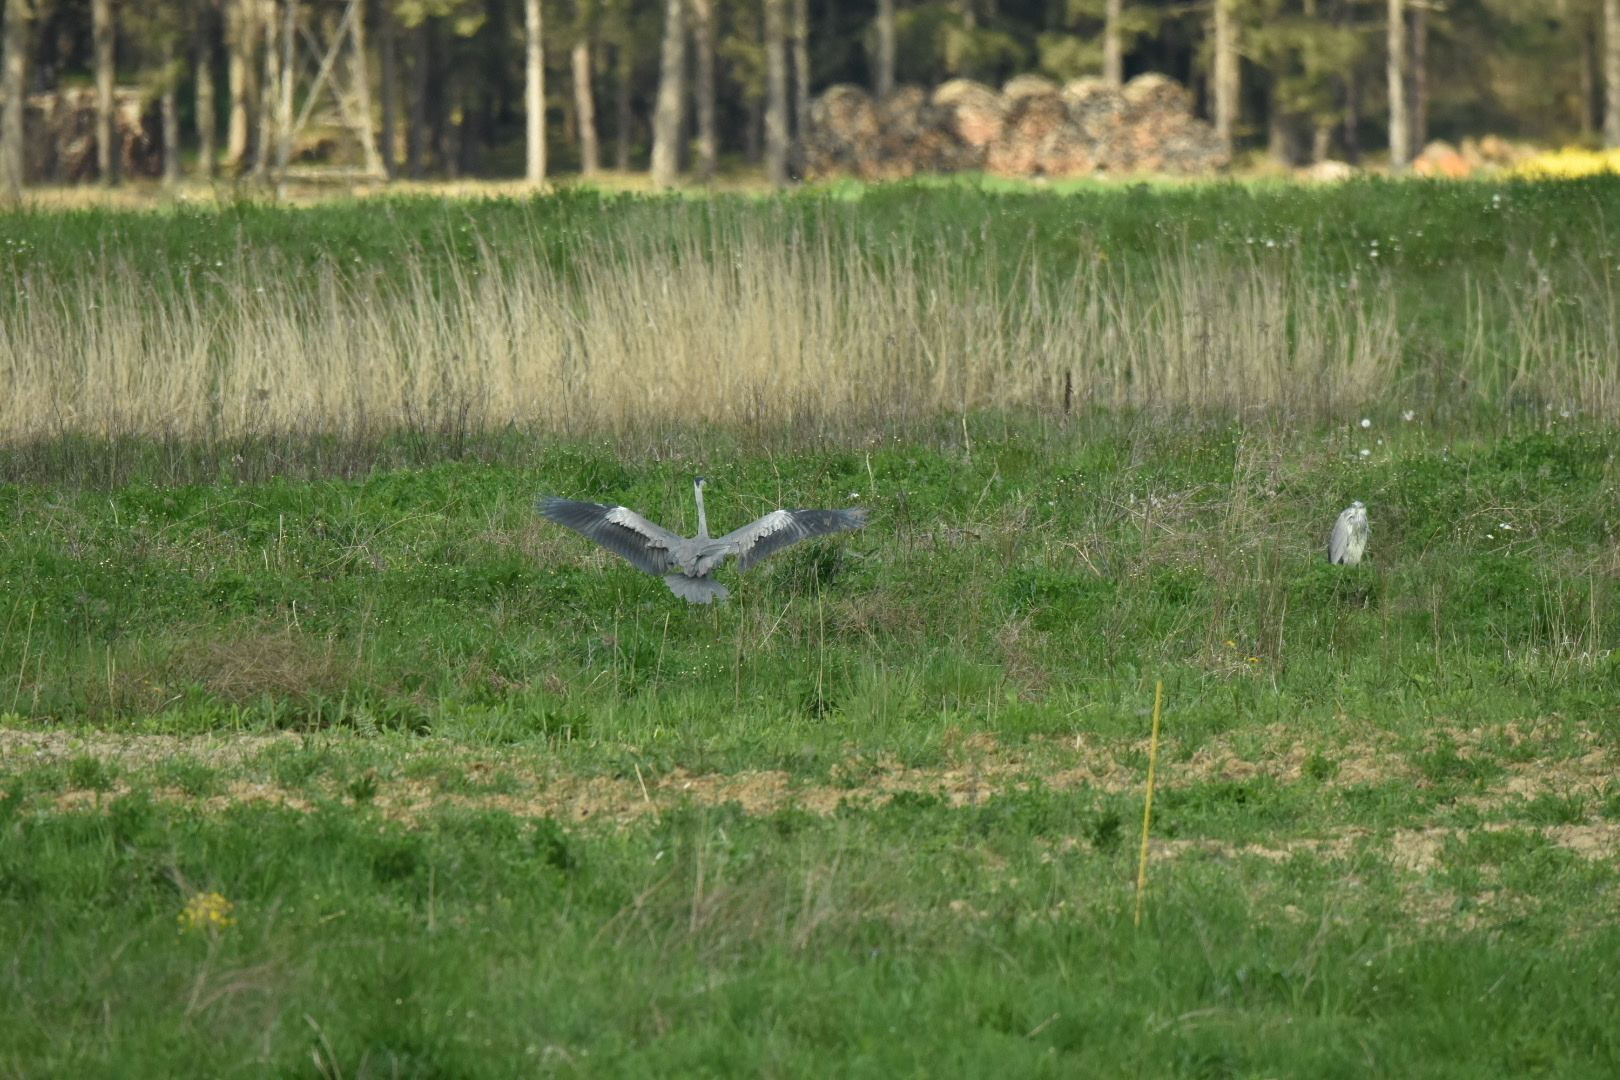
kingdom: Animalia
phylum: Chordata
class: Aves
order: Pelecaniformes
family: Ardeidae
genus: Ardea
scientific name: Ardea cinerea
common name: Grey heron
